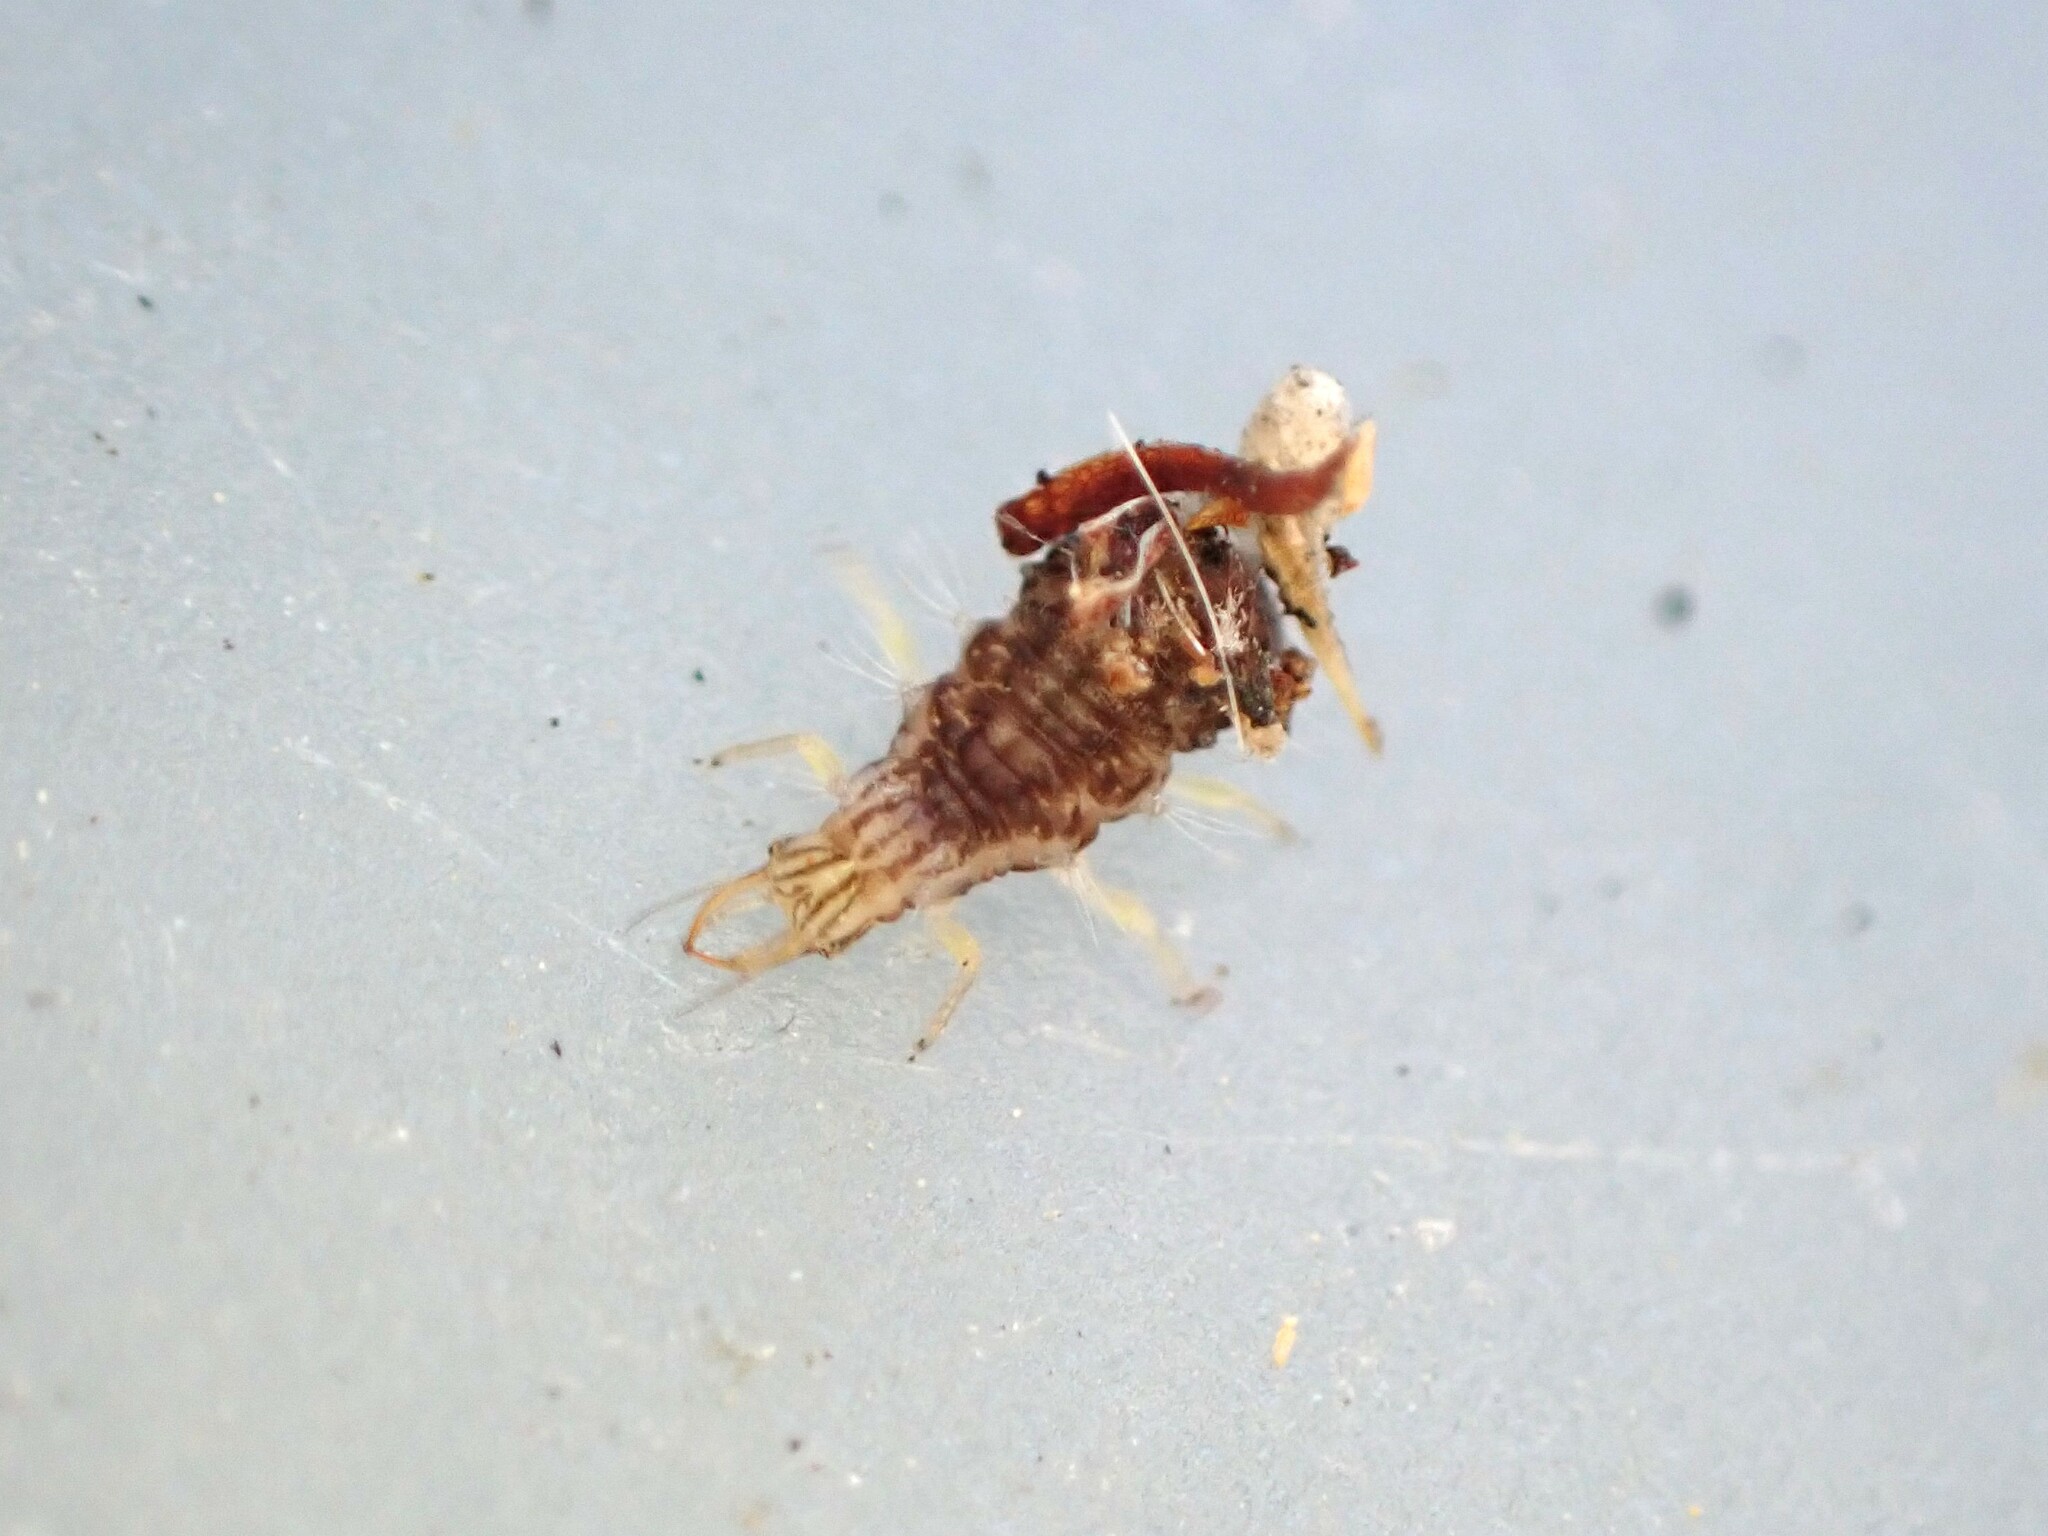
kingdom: Animalia
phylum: Arthropoda
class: Insecta
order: Neuroptera
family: Chrysopidae
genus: Mallada
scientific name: Mallada basalis
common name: Green lacewing
